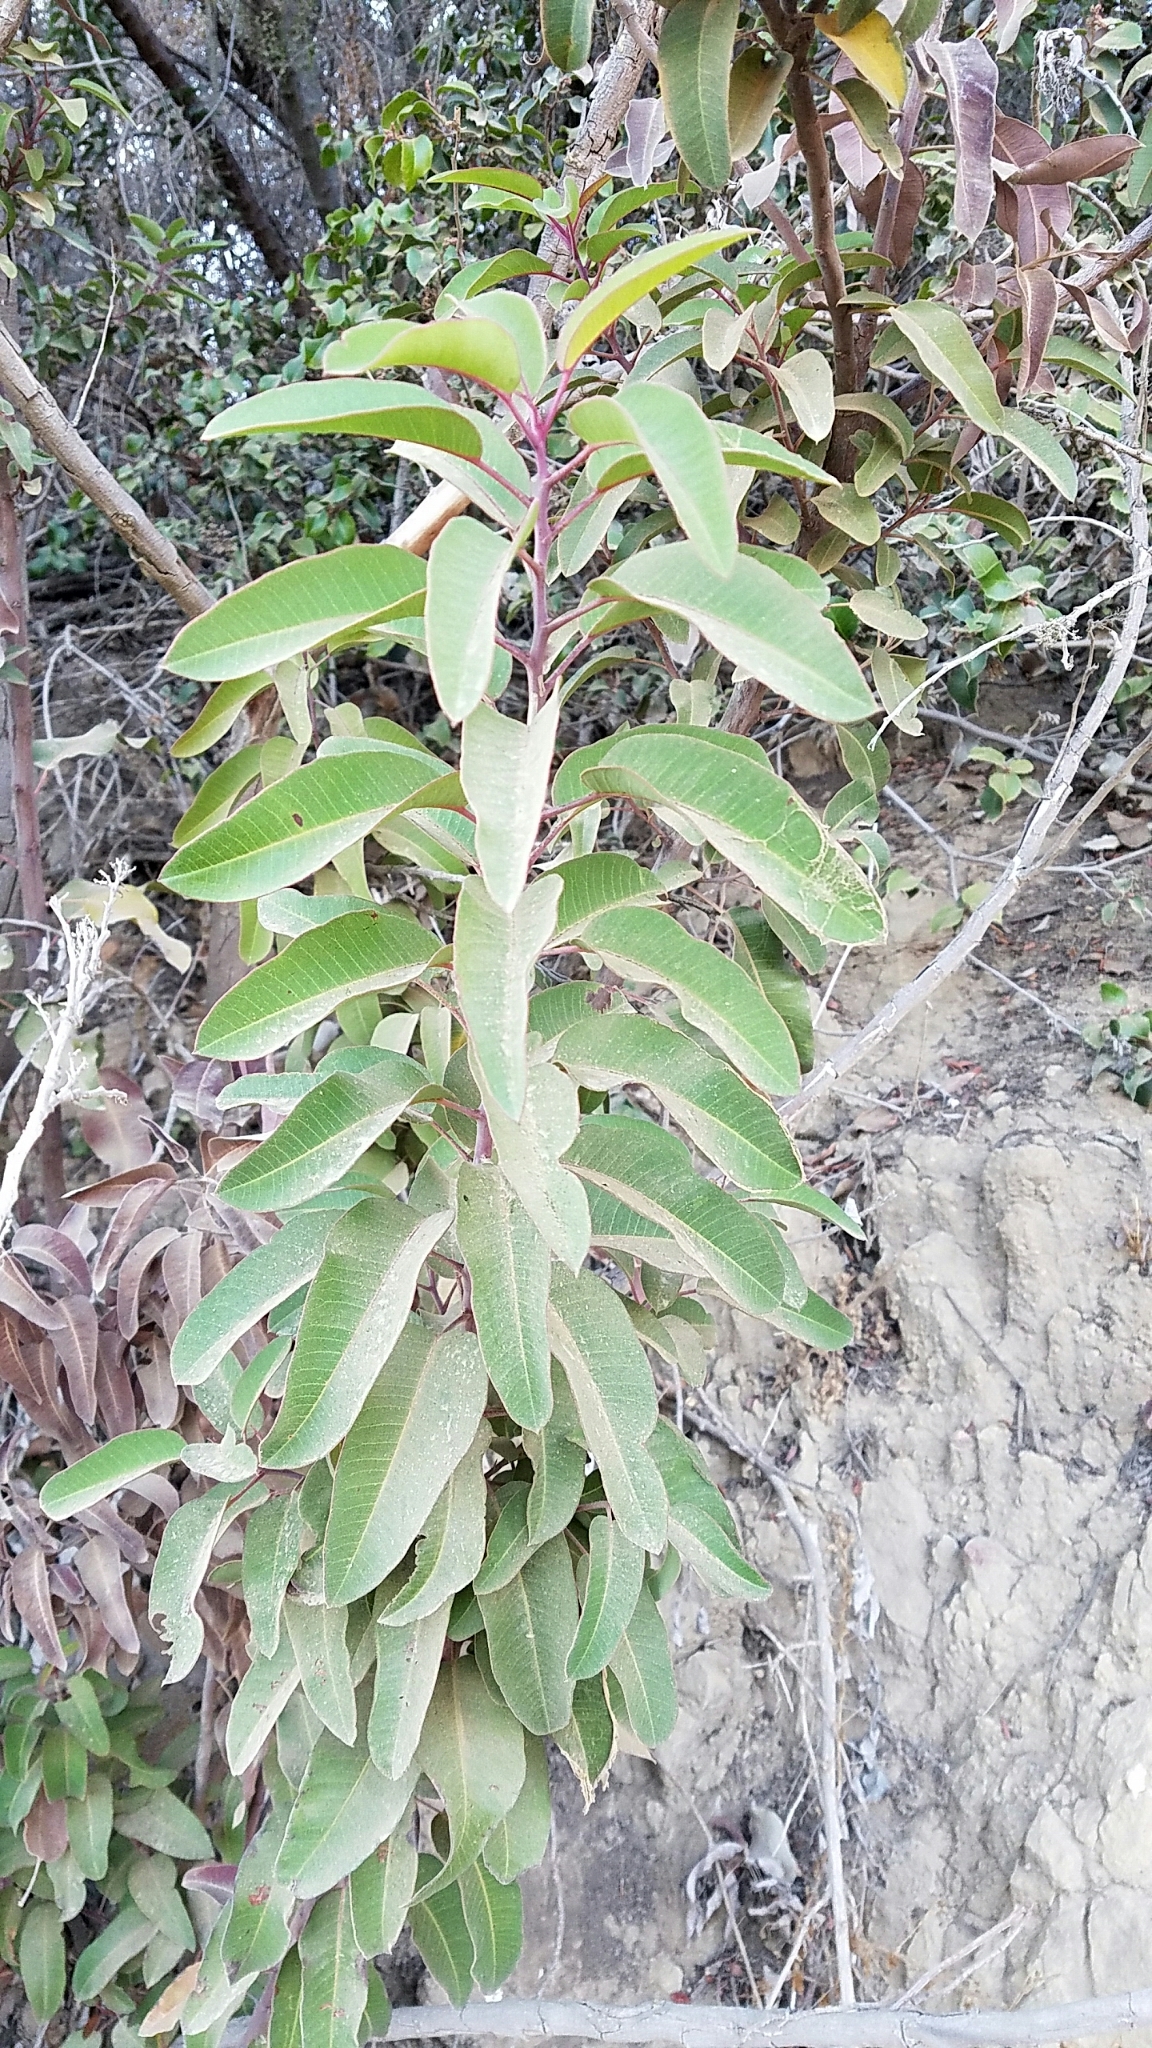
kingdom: Plantae
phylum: Tracheophyta
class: Magnoliopsida
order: Sapindales
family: Anacardiaceae
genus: Malosma
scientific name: Malosma laurina
